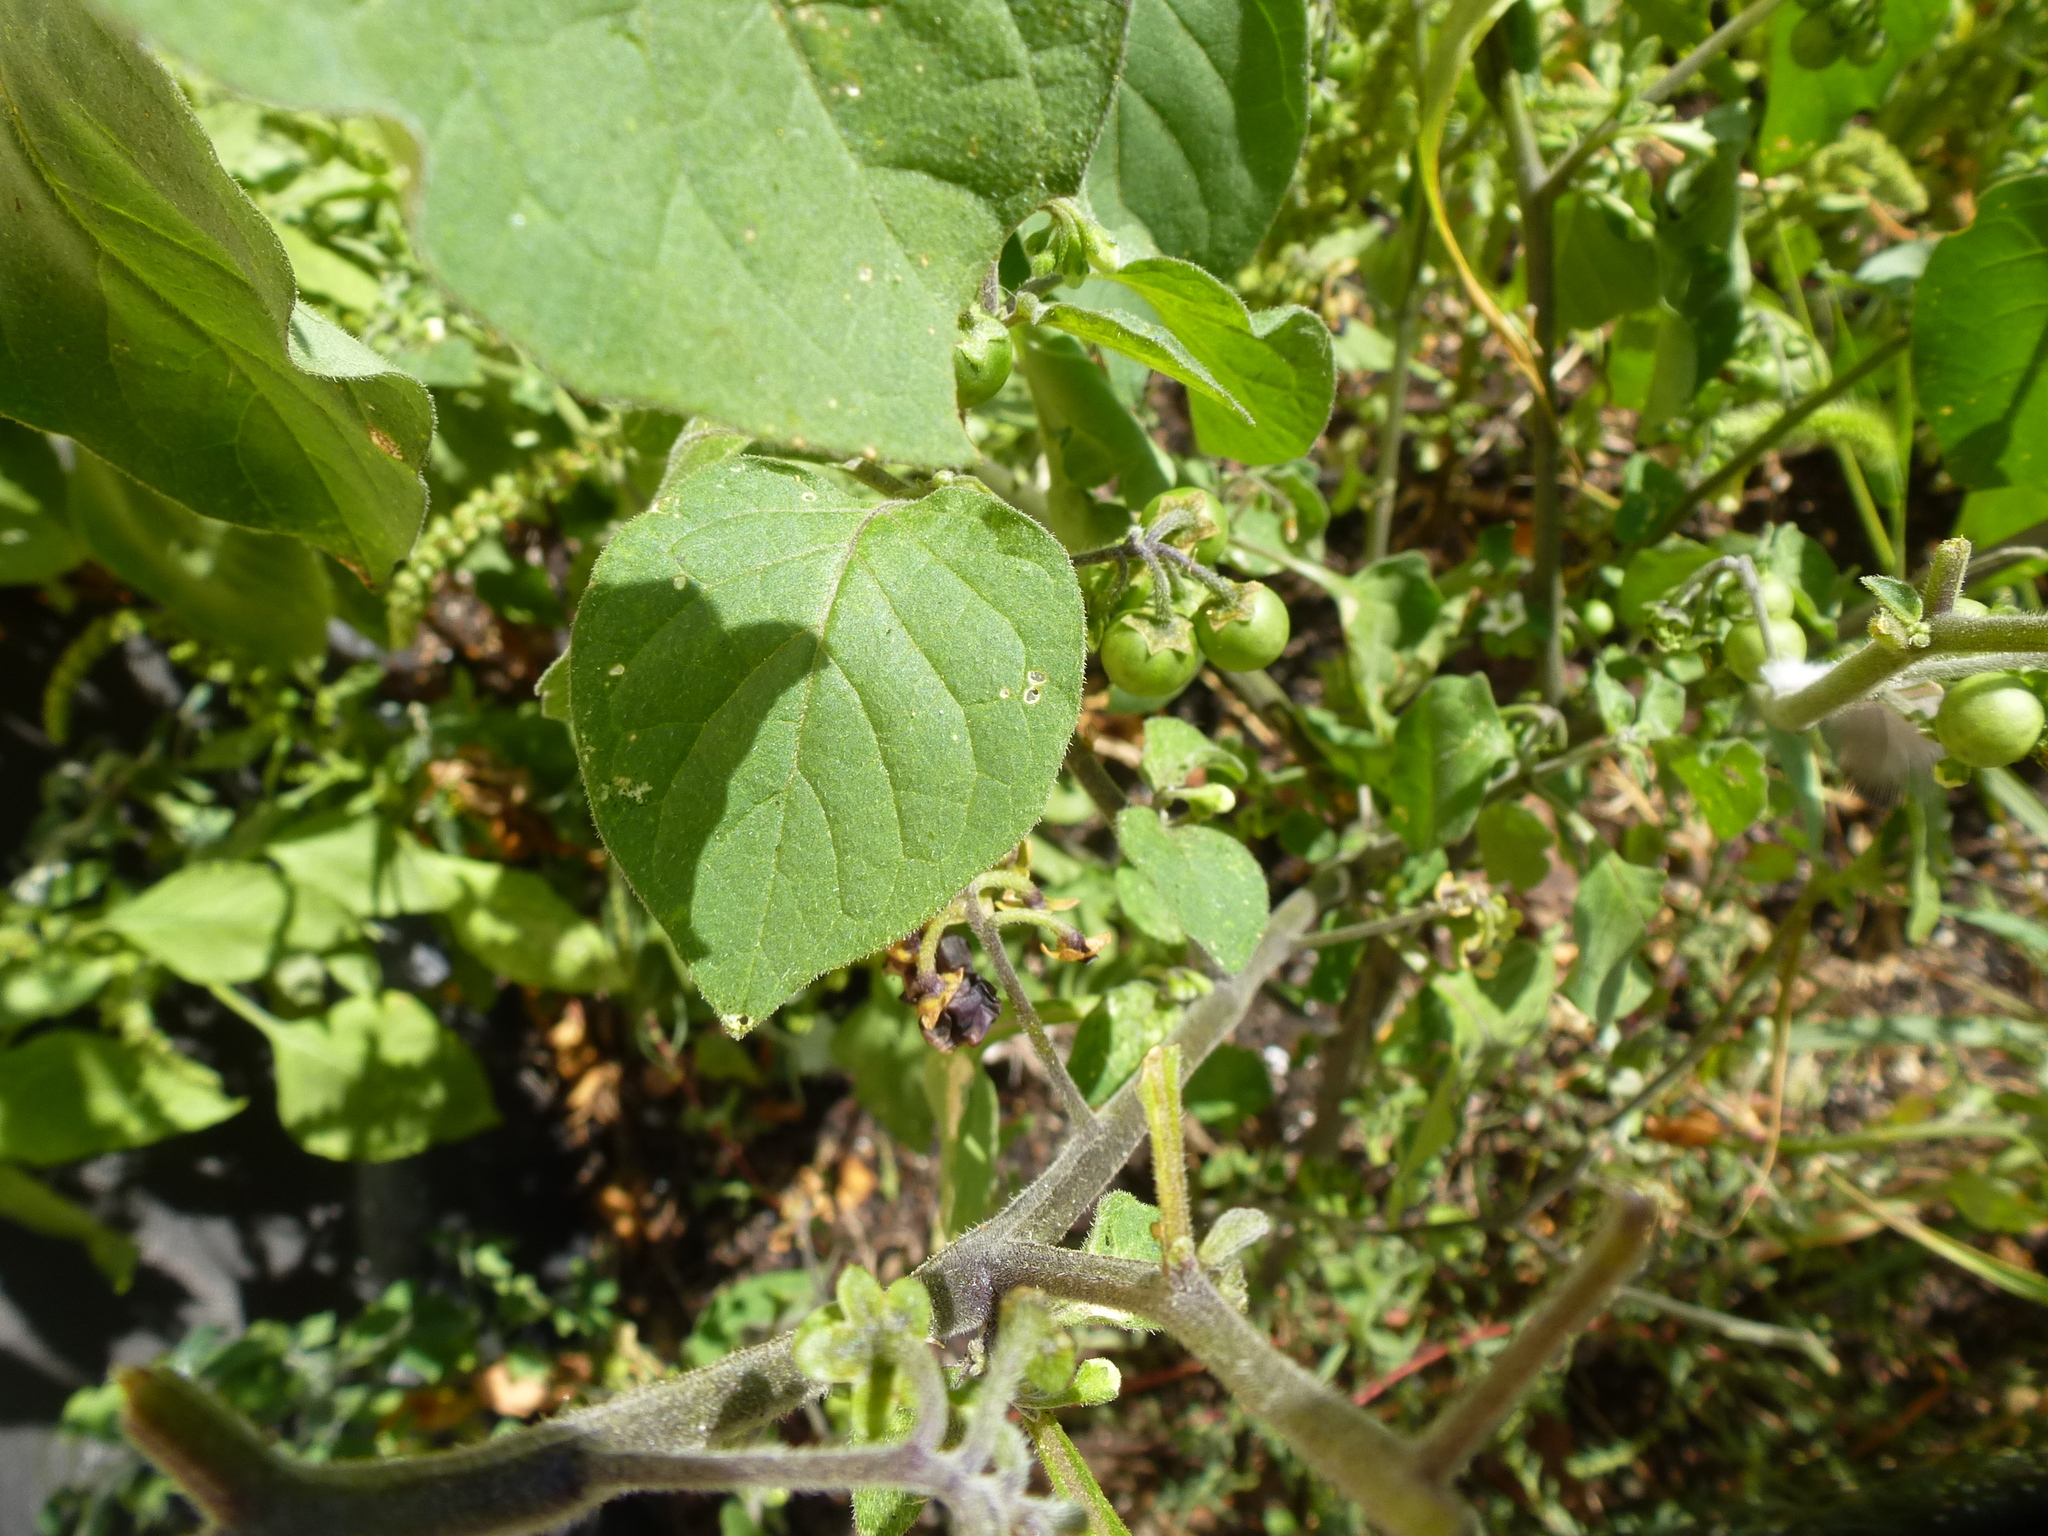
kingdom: Plantae
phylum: Tracheophyta
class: Magnoliopsida
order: Solanales
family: Solanaceae
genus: Solanum
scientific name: Solanum nigrum
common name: Black nightshade
